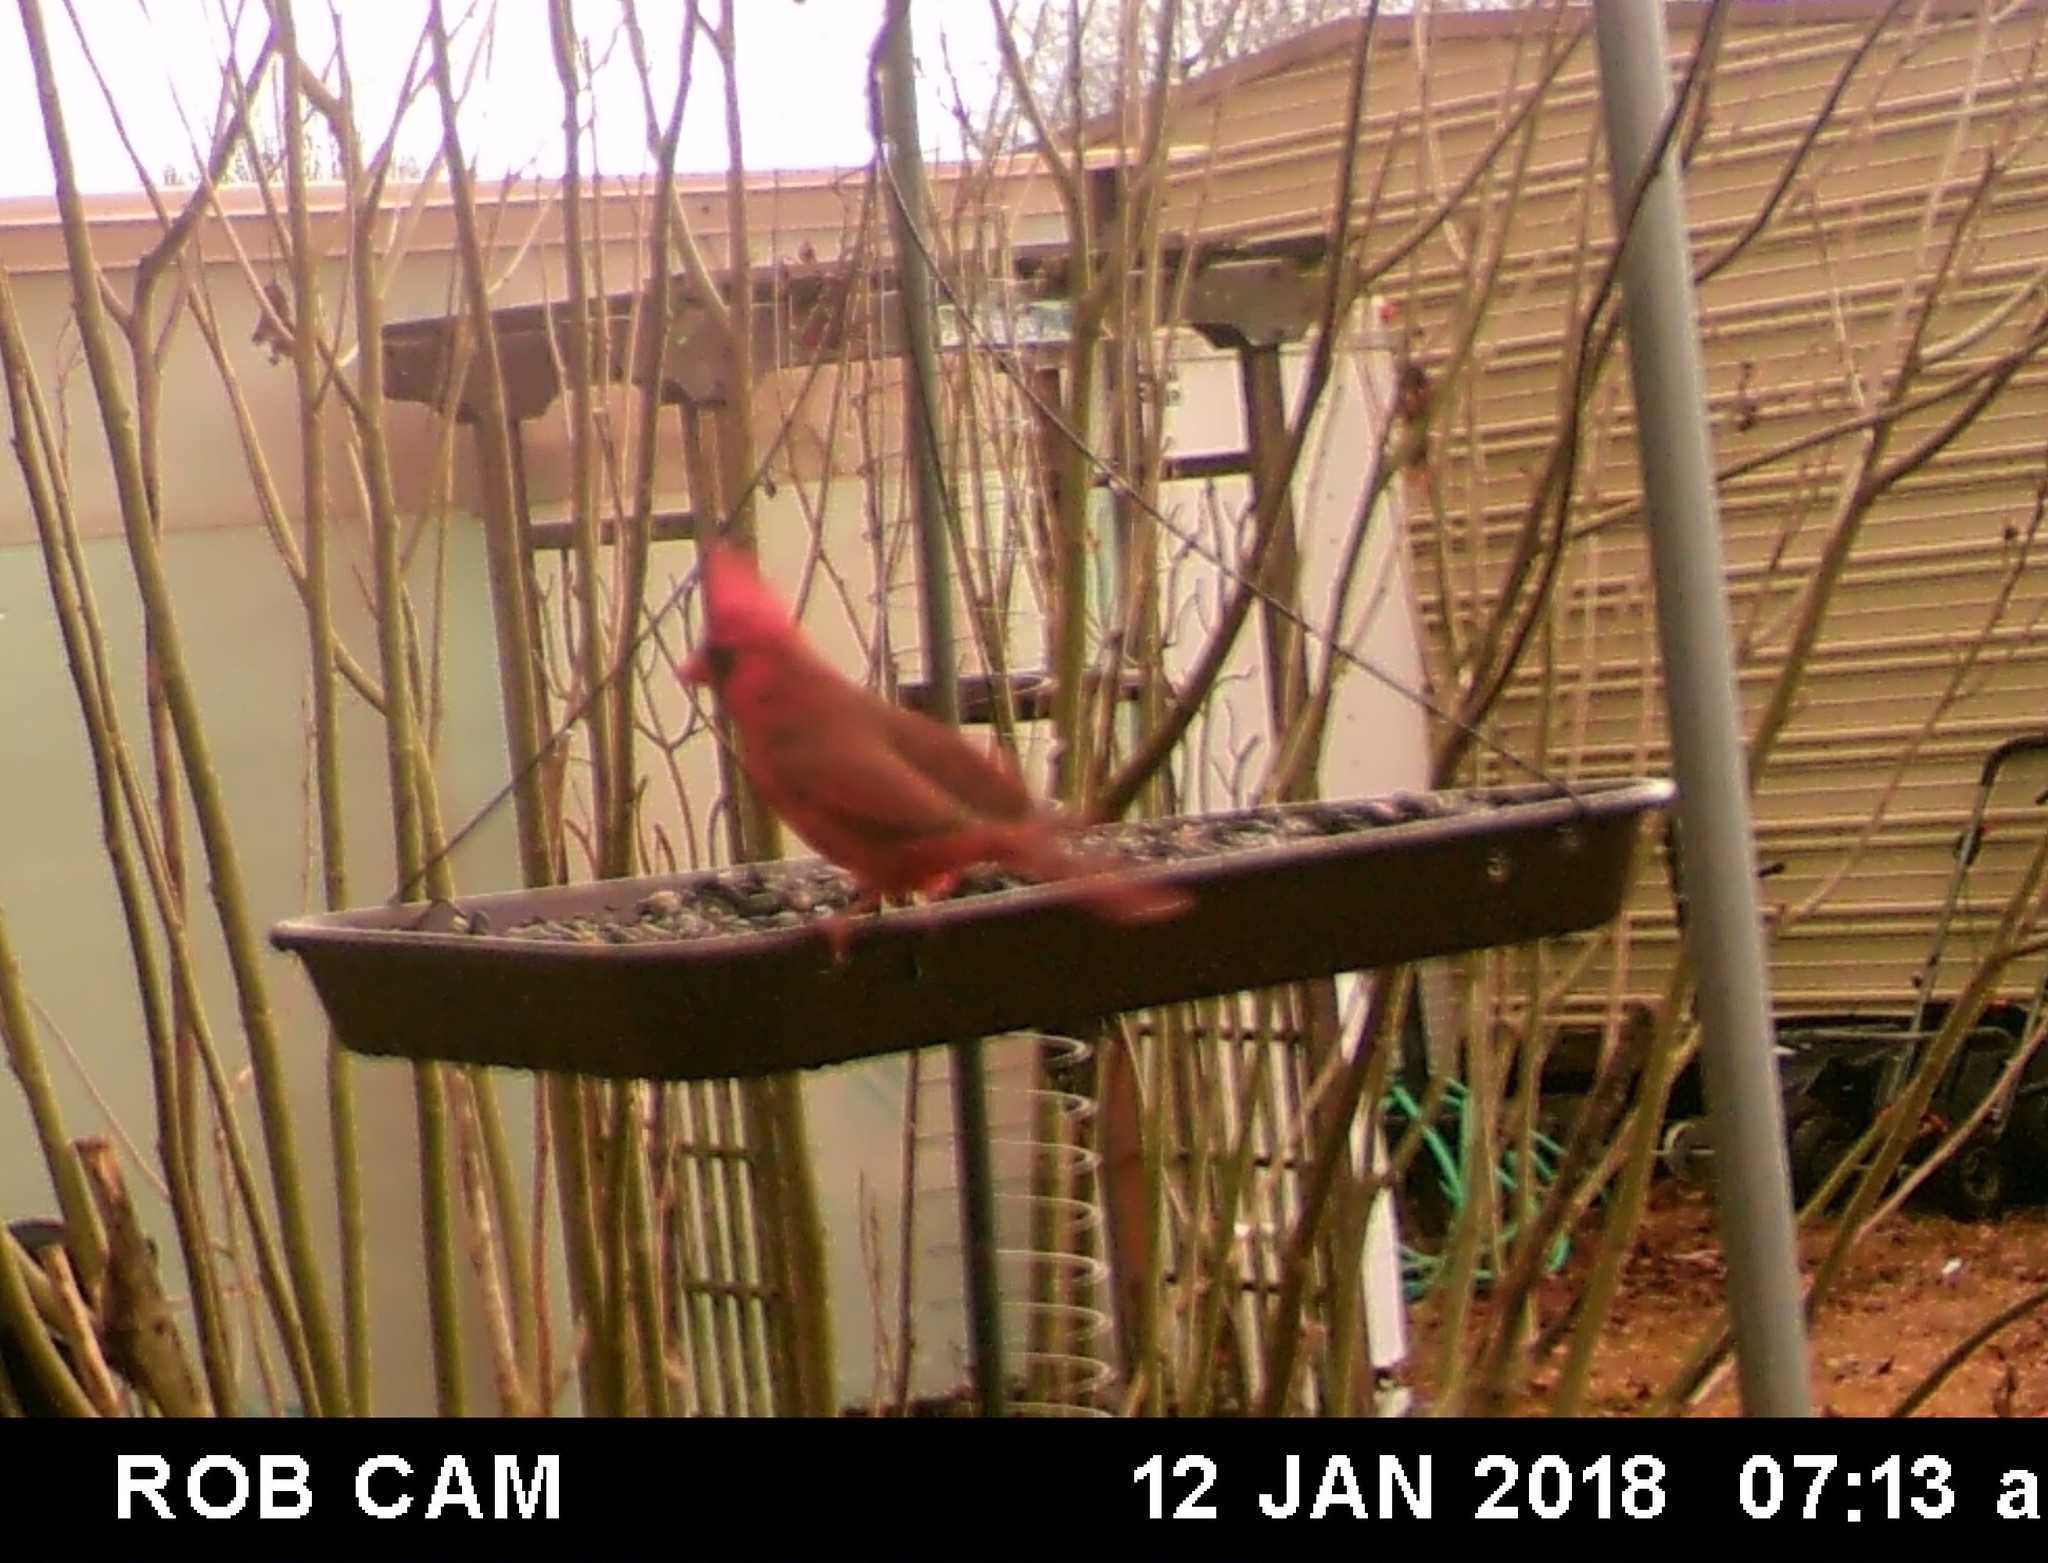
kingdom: Animalia
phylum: Chordata
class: Aves
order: Passeriformes
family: Cardinalidae
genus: Cardinalis
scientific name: Cardinalis cardinalis
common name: Northern cardinal
